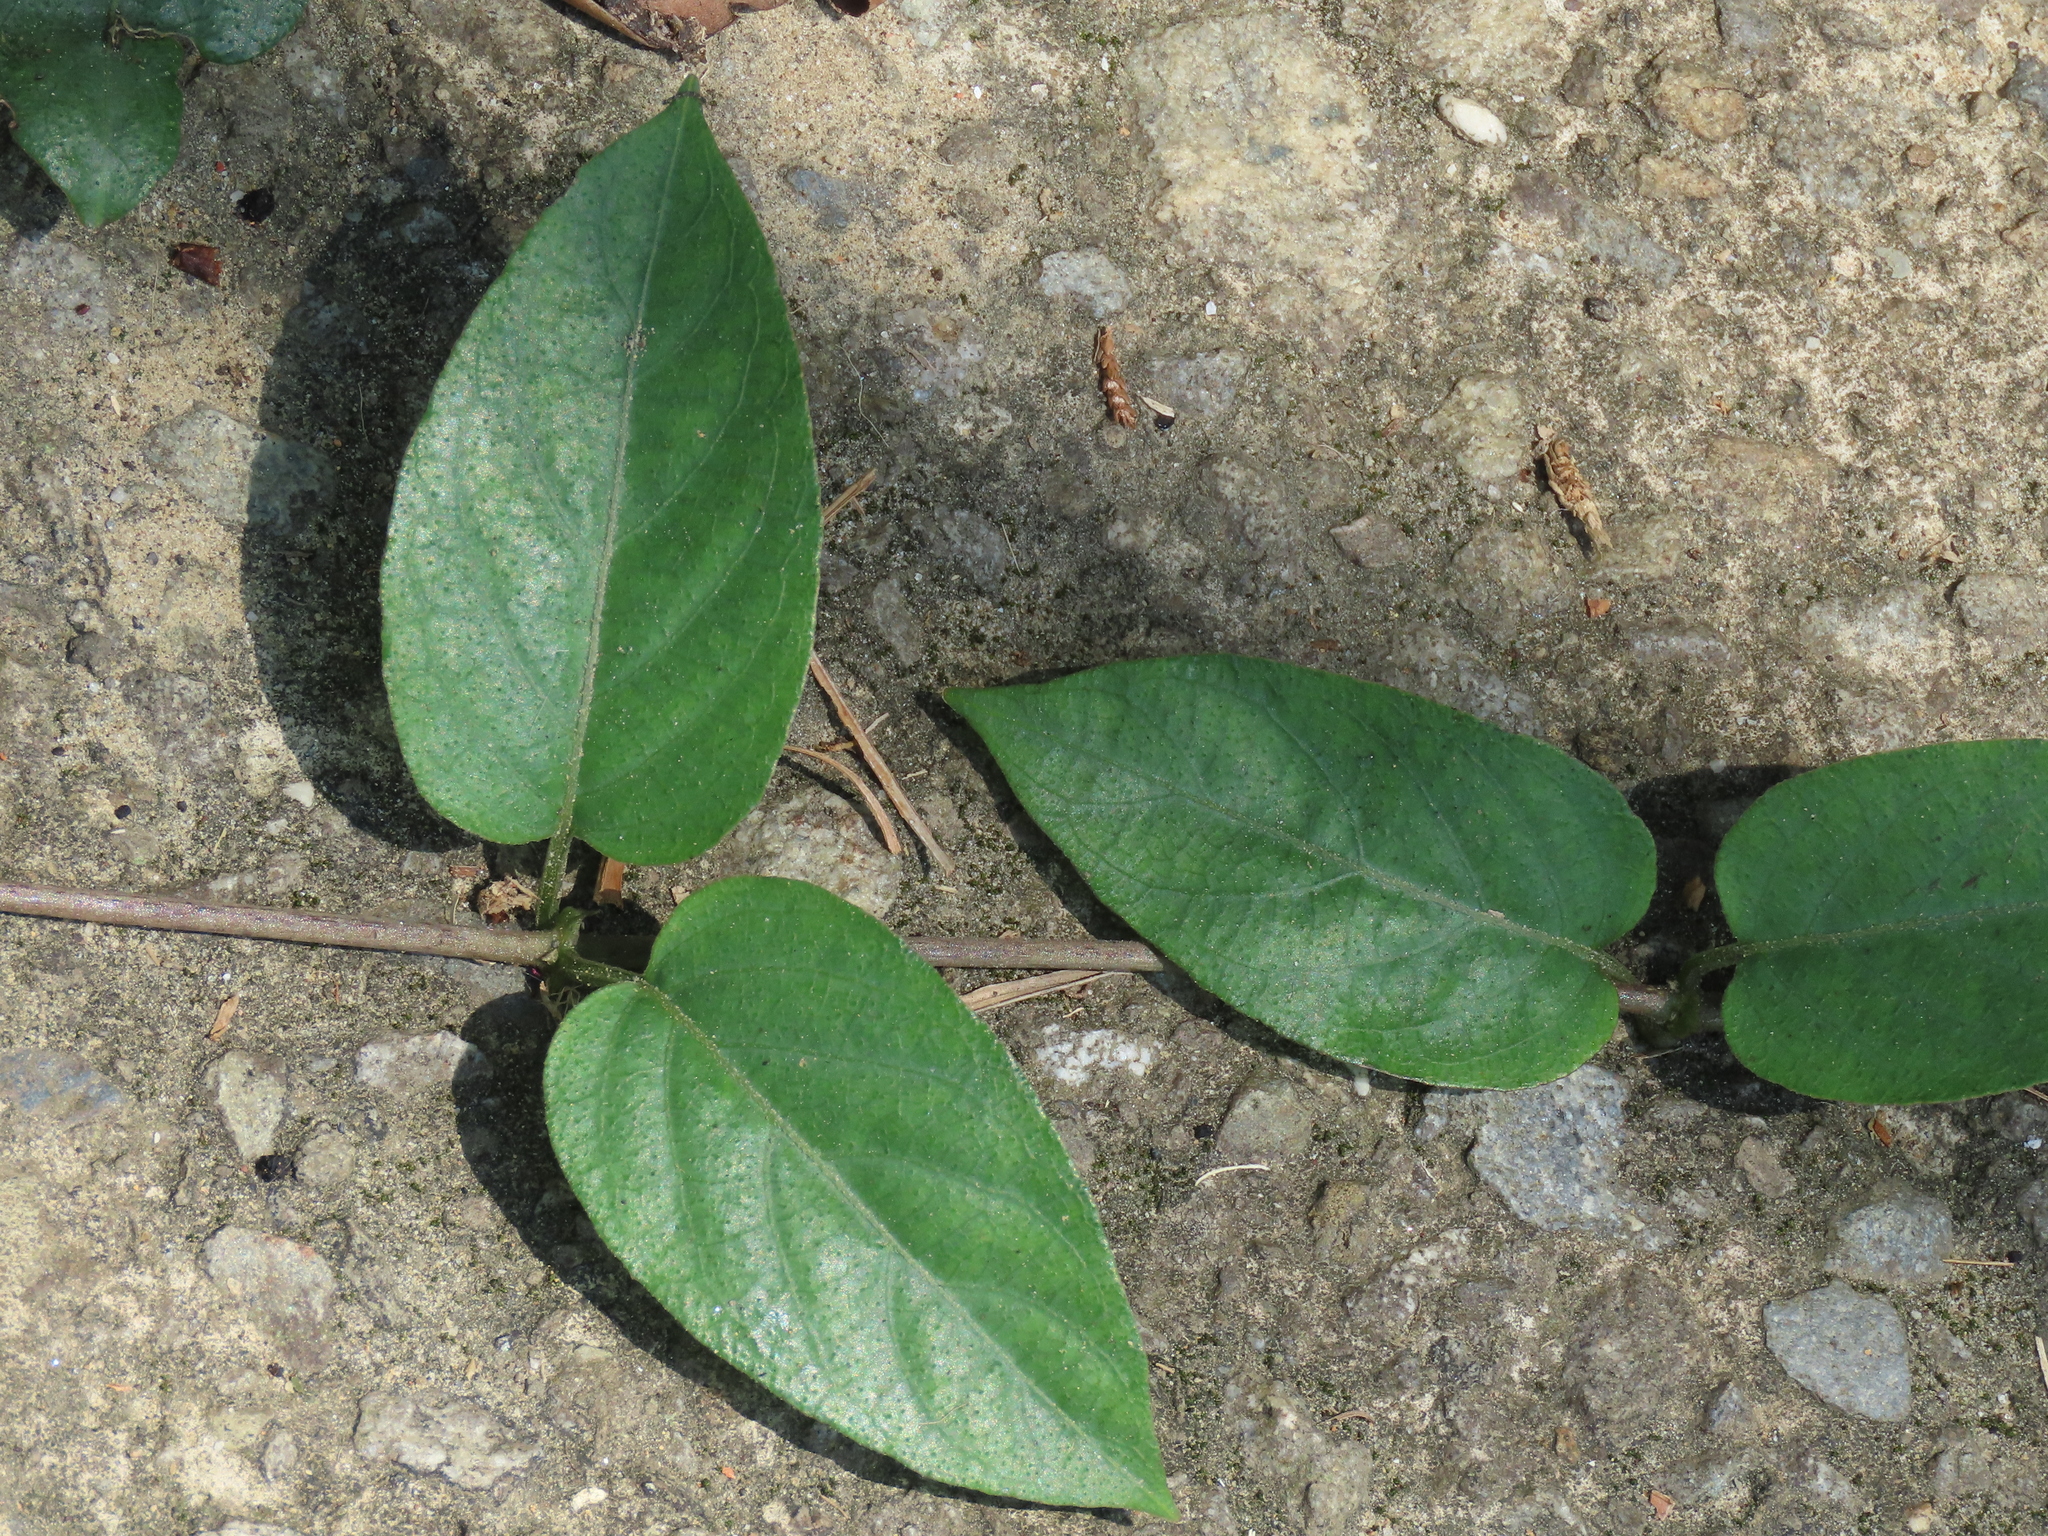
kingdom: Plantae
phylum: Tracheophyta
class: Magnoliopsida
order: Gentianales
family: Rubiaceae
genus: Paederia
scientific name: Paederia foetida
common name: Stinkvine
